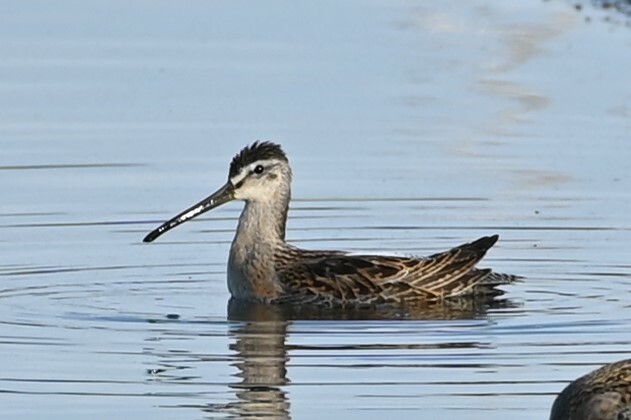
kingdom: Animalia
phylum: Chordata
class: Aves
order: Charadriiformes
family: Scolopacidae
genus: Limnodromus
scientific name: Limnodromus griseus
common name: Short-billed dowitcher
